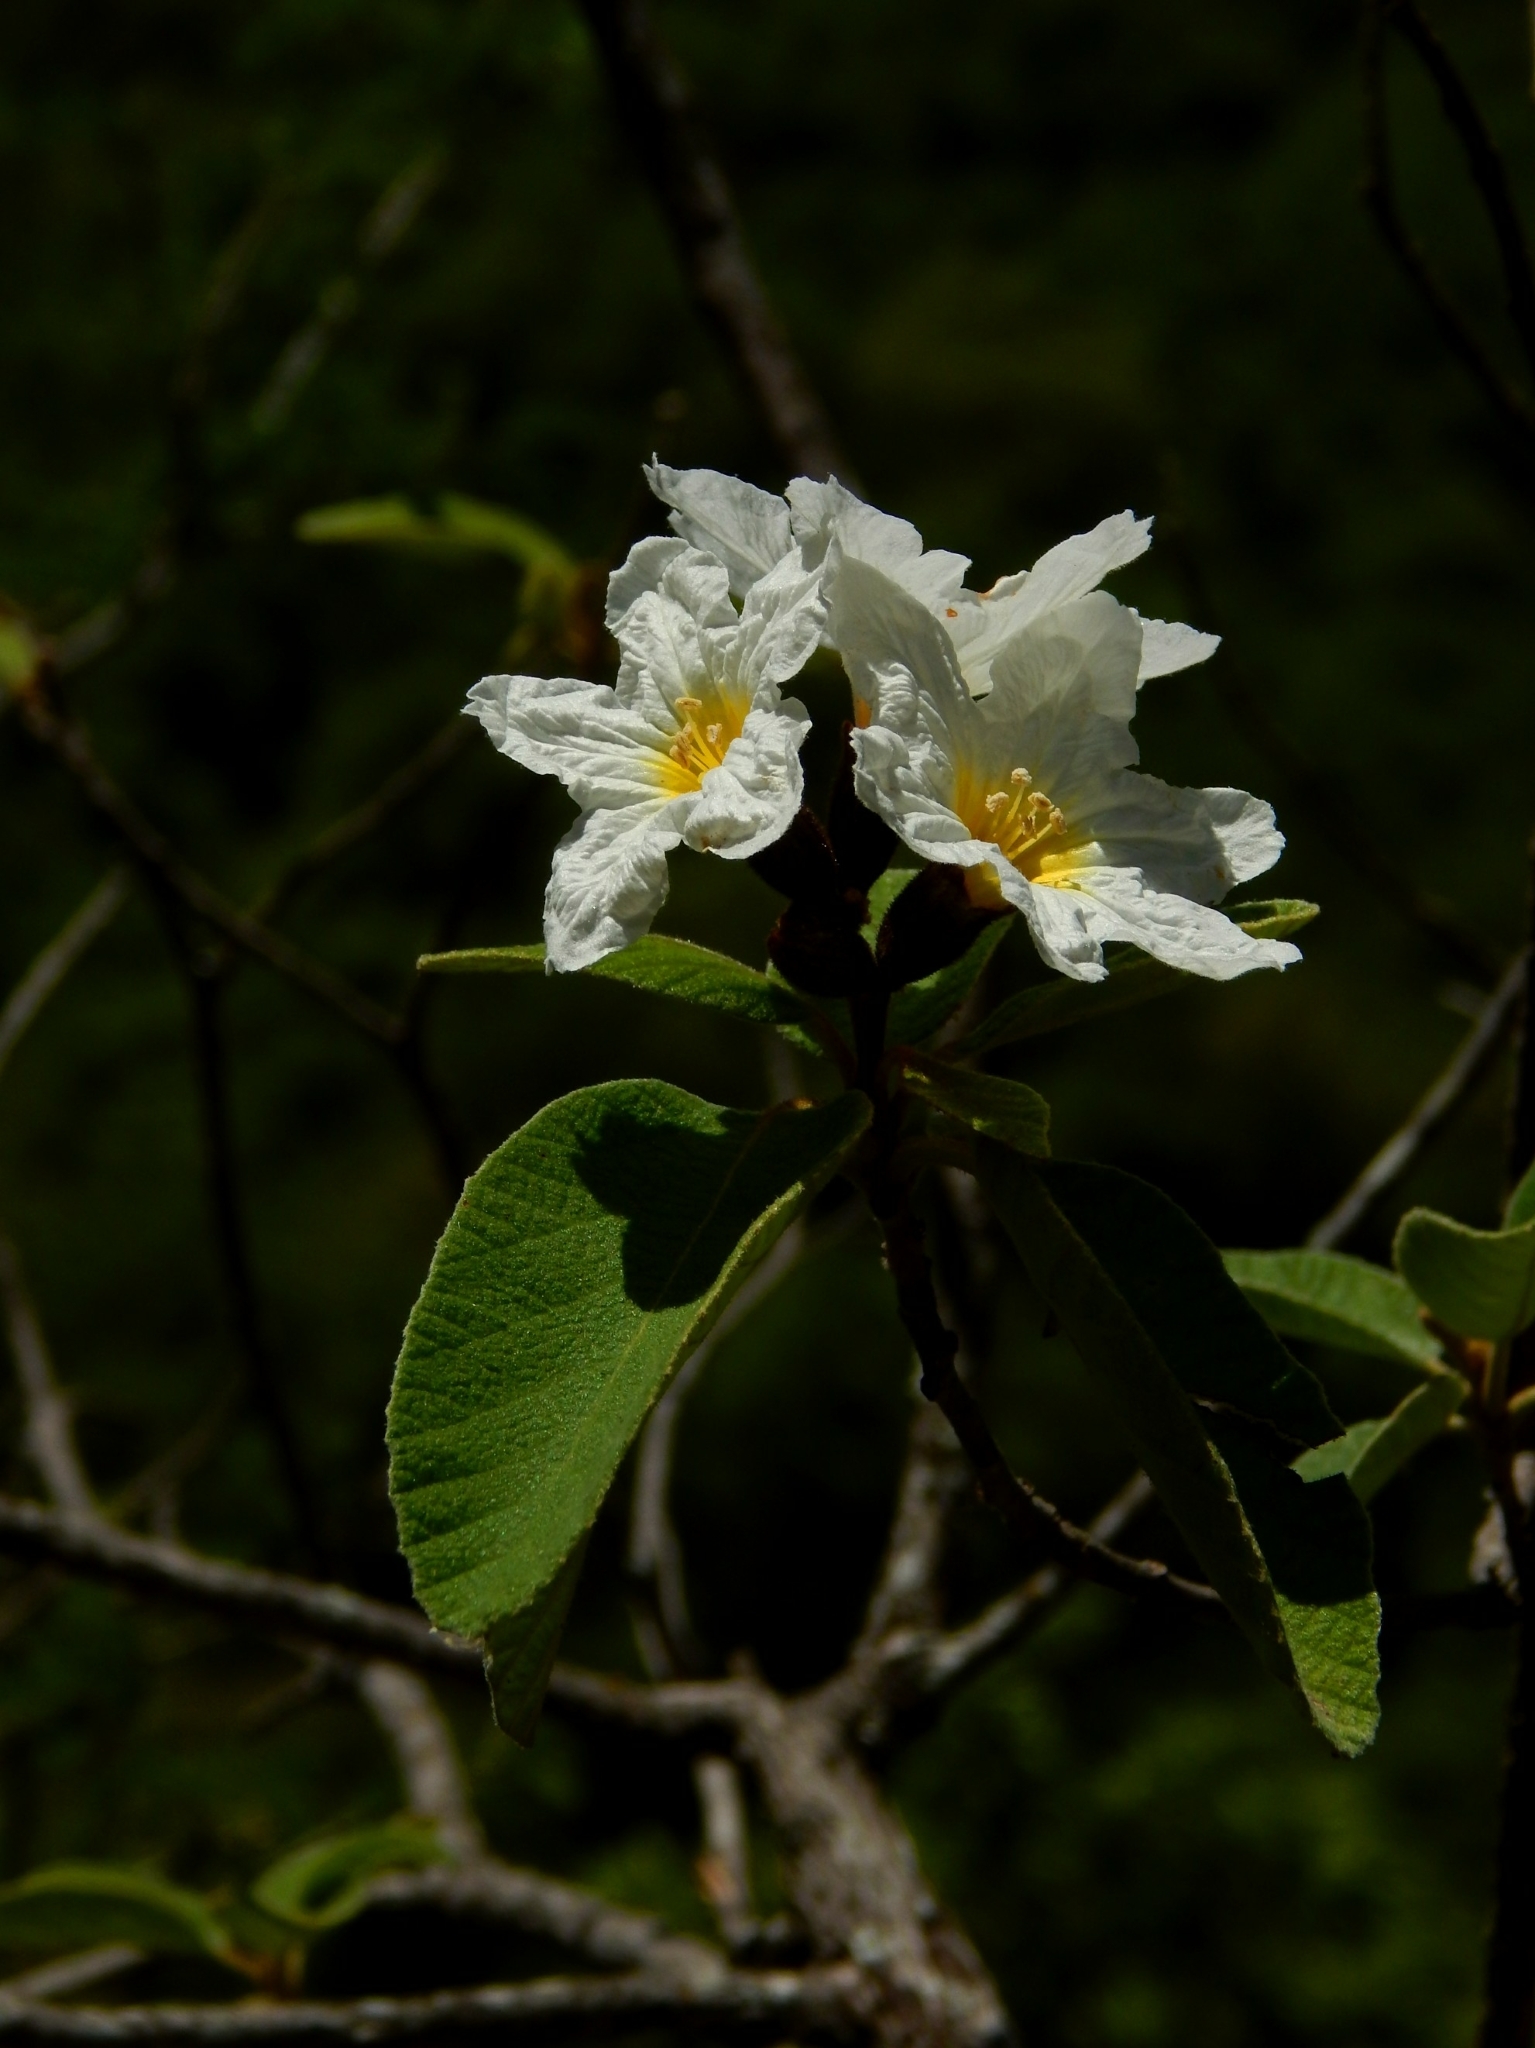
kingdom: Plantae
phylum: Tracheophyta
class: Magnoliopsida
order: Boraginales
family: Cordiaceae
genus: Cordia
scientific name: Cordia boissieri
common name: Mexican-olive
